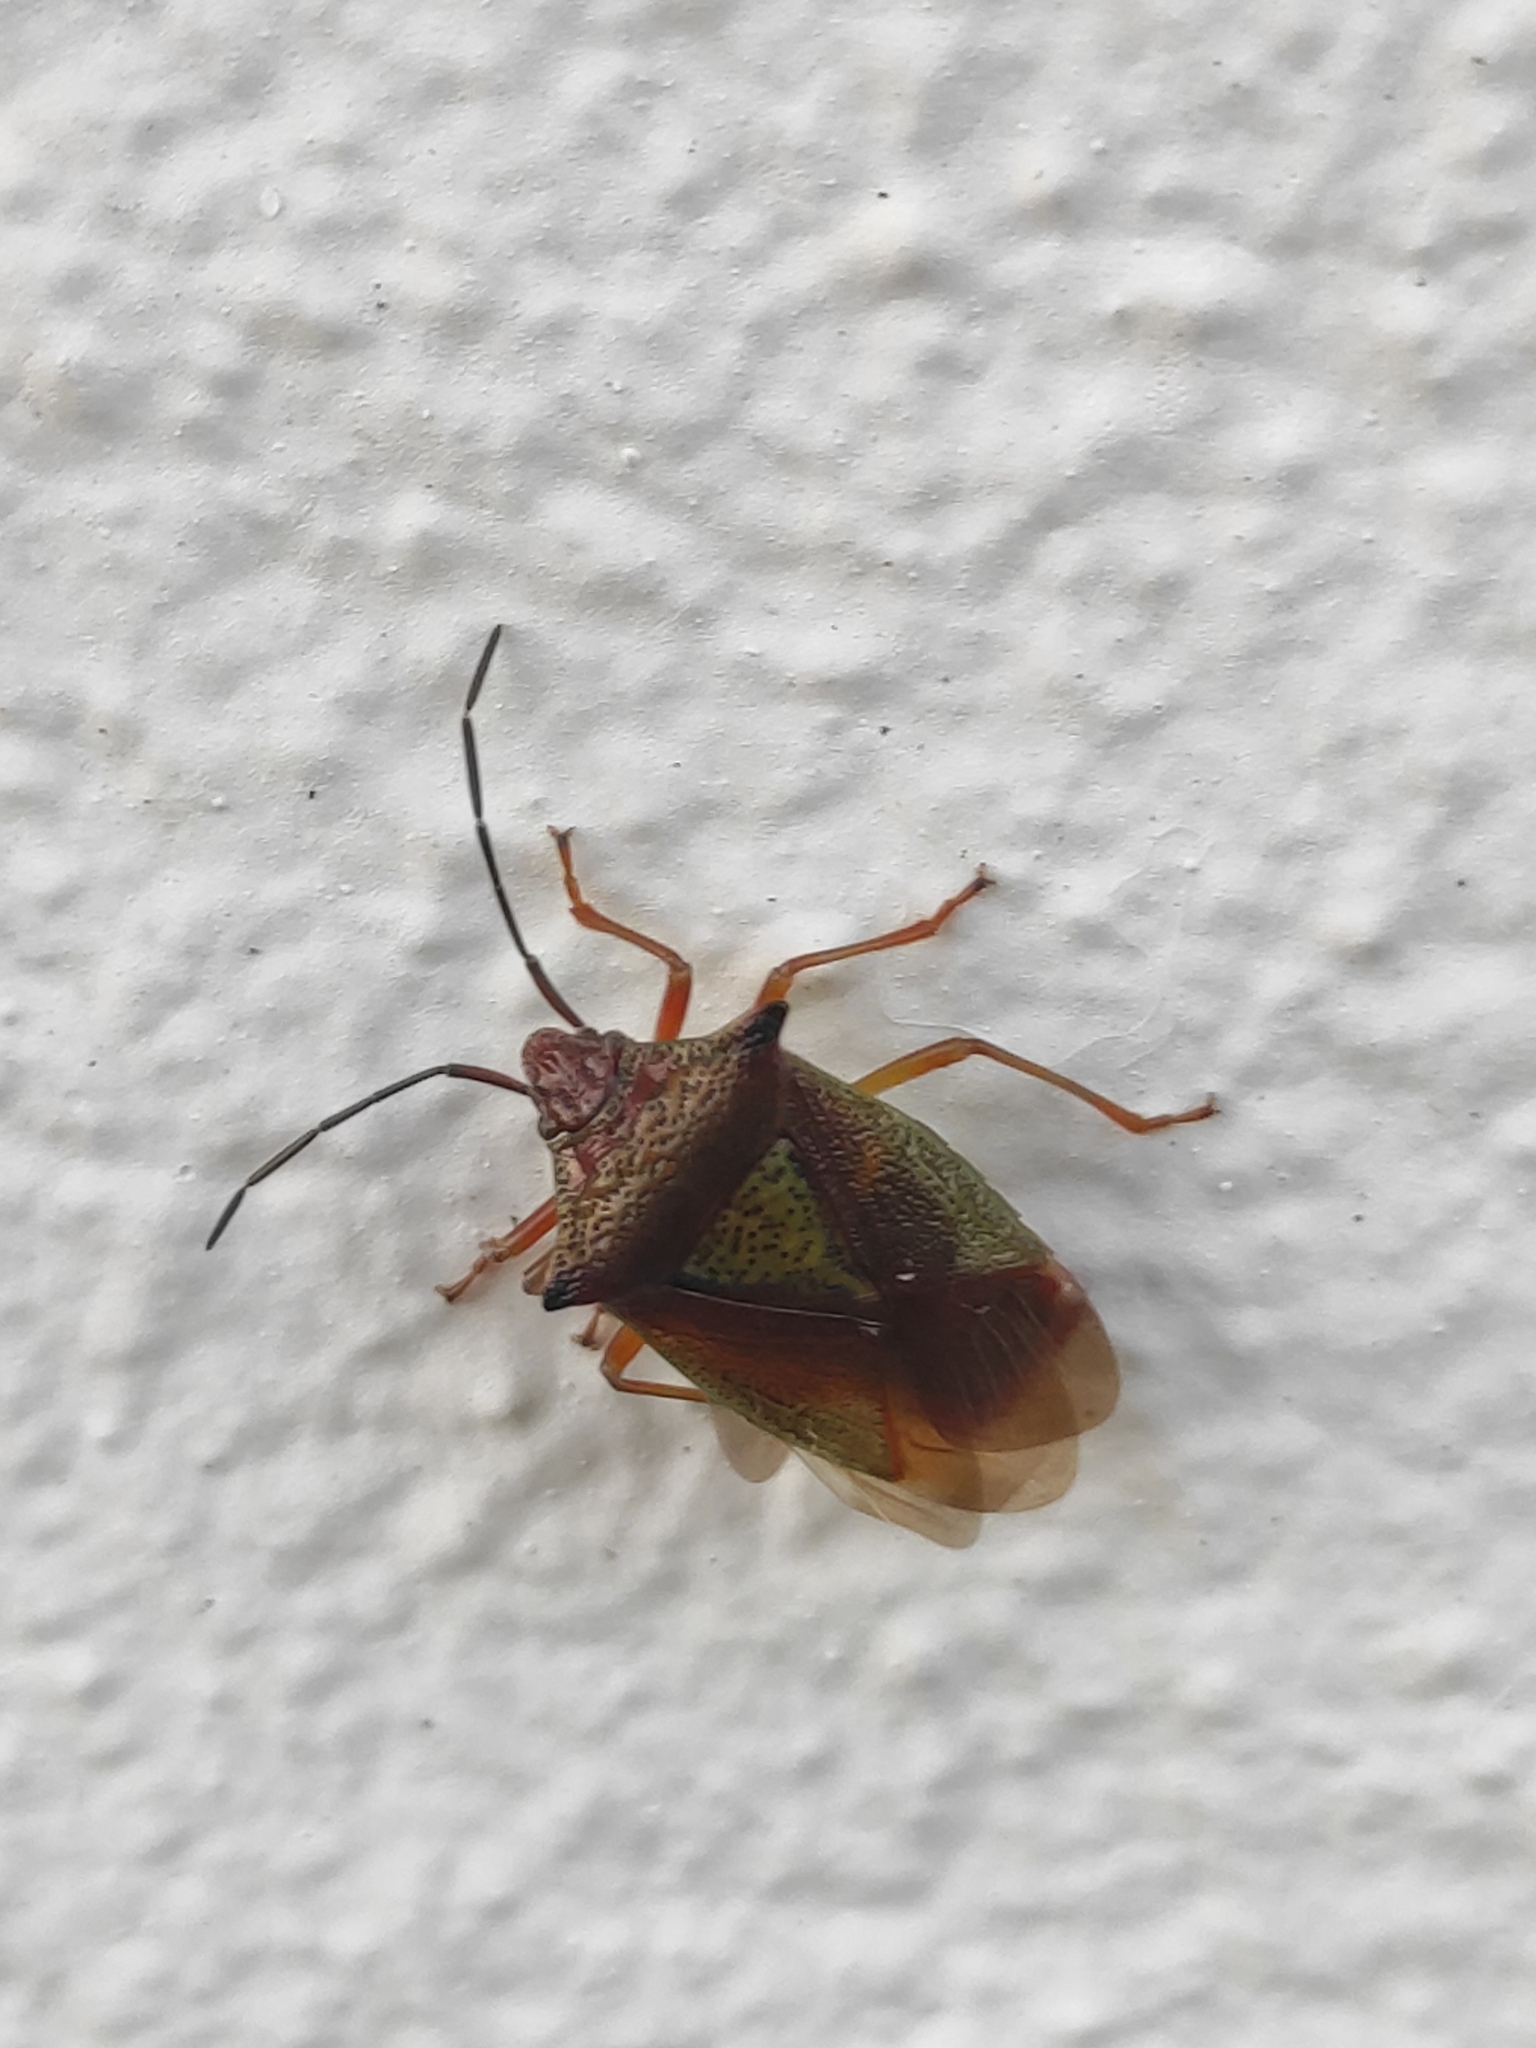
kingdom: Animalia
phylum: Arthropoda
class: Insecta
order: Hemiptera
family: Acanthosomatidae
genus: Acanthosoma
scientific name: Acanthosoma haemorrhoidale
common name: Hawthorn shieldbug
